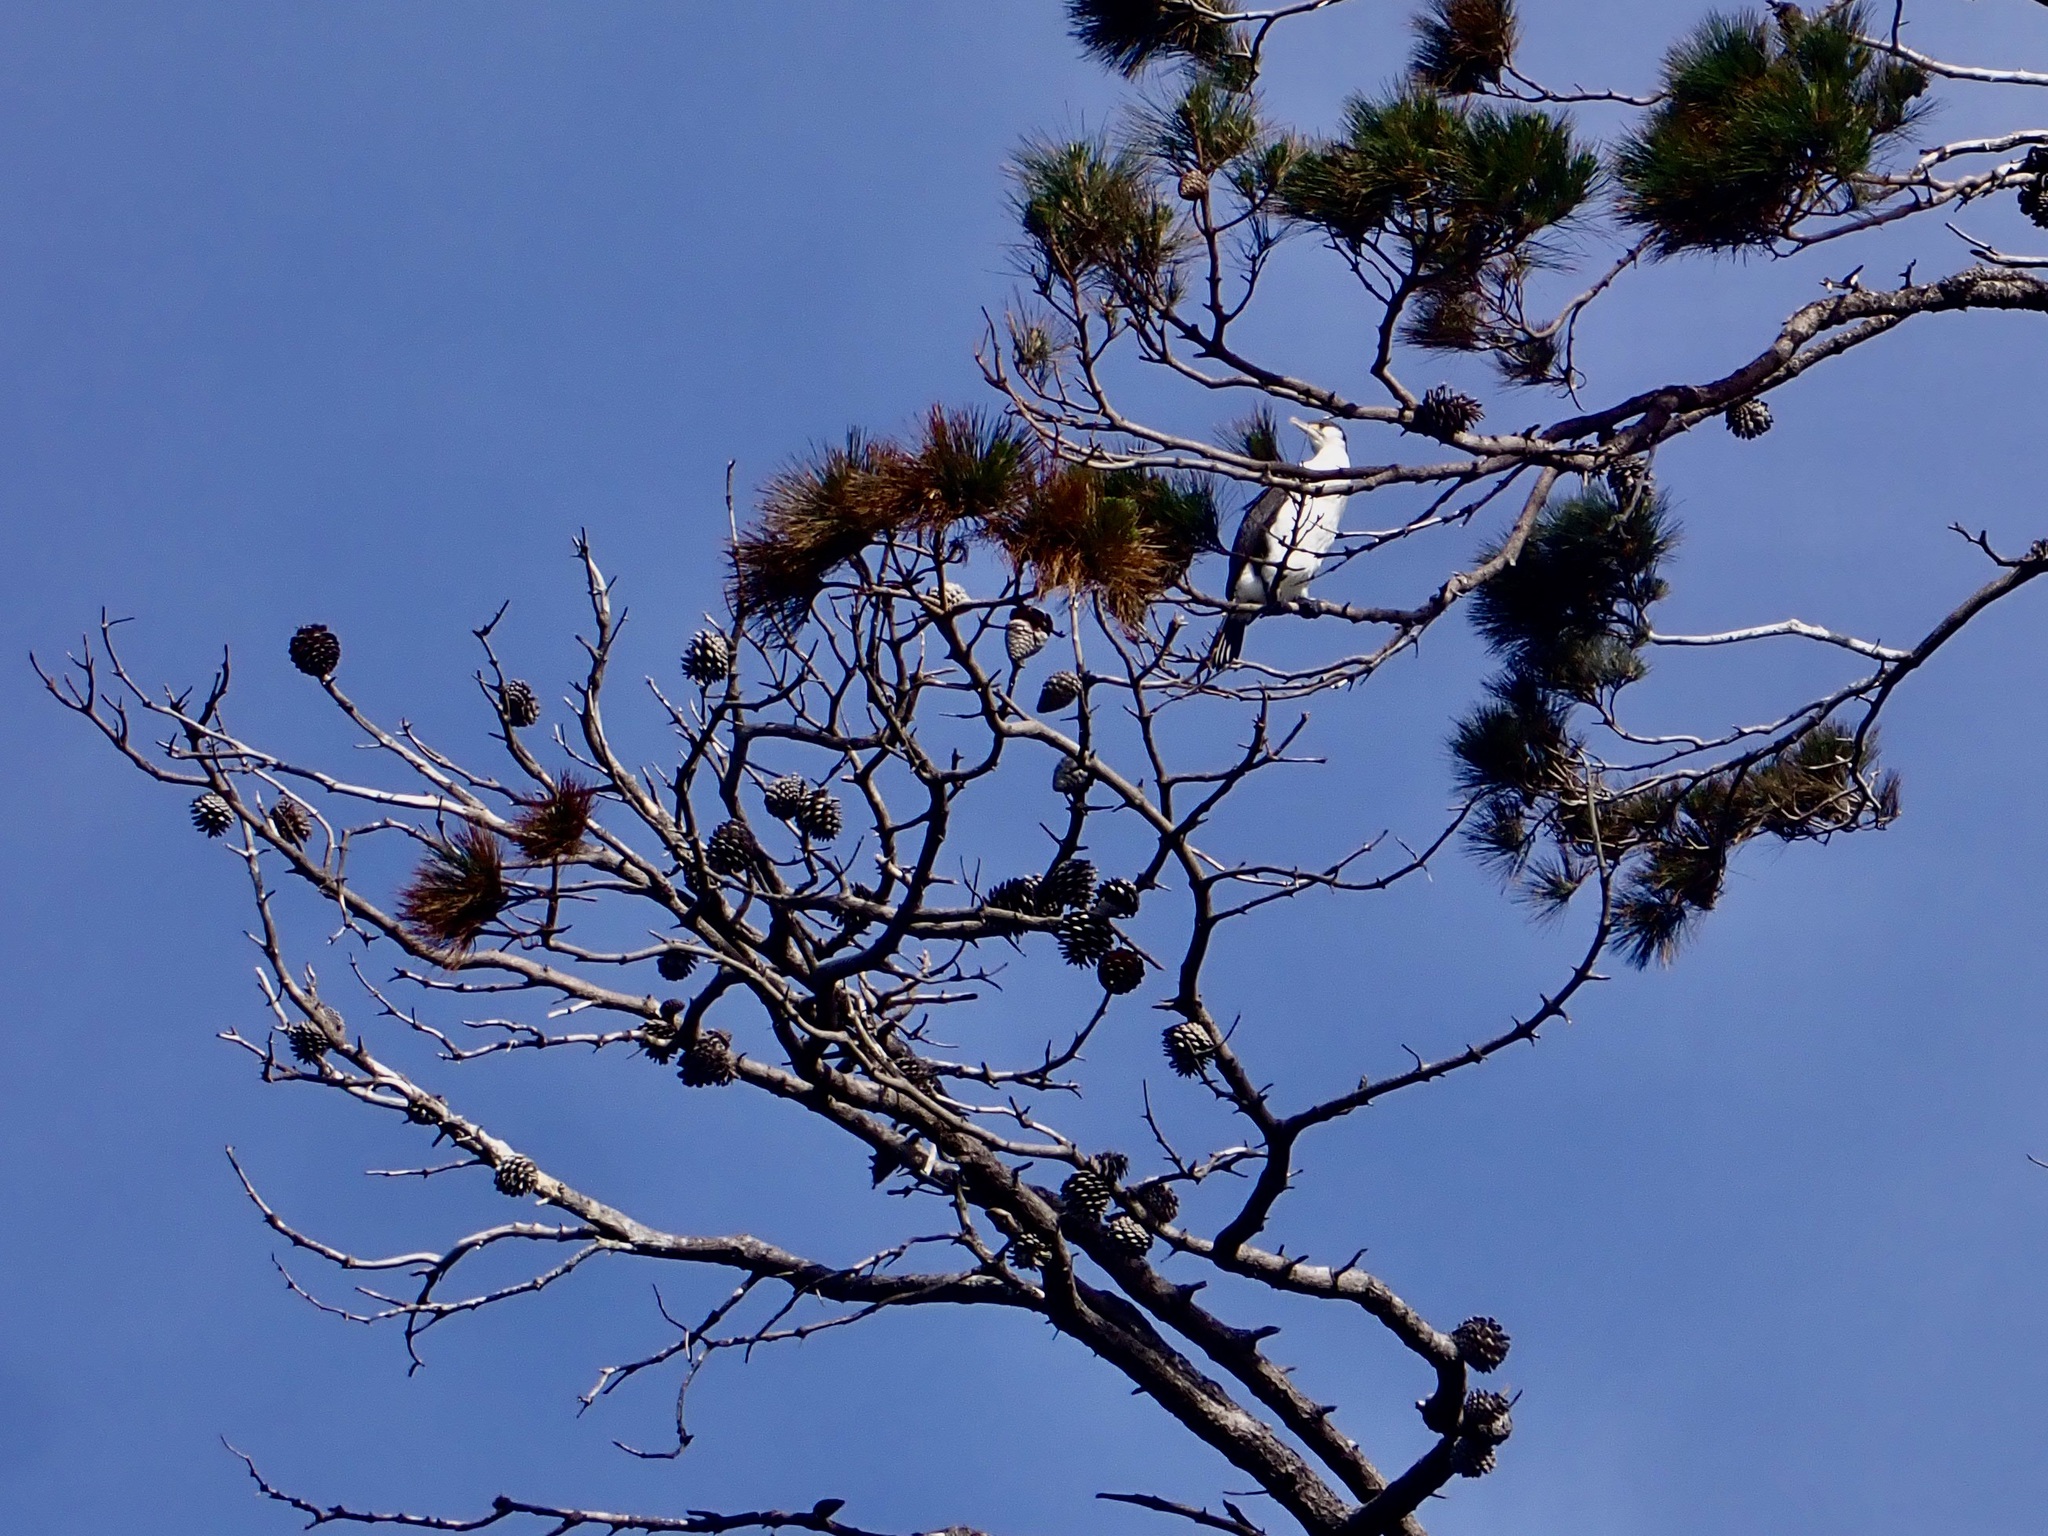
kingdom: Animalia
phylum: Chordata
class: Aves
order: Suliformes
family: Phalacrocoracidae
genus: Phalacrocorax
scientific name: Phalacrocorax varius
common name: Pied cormorant
